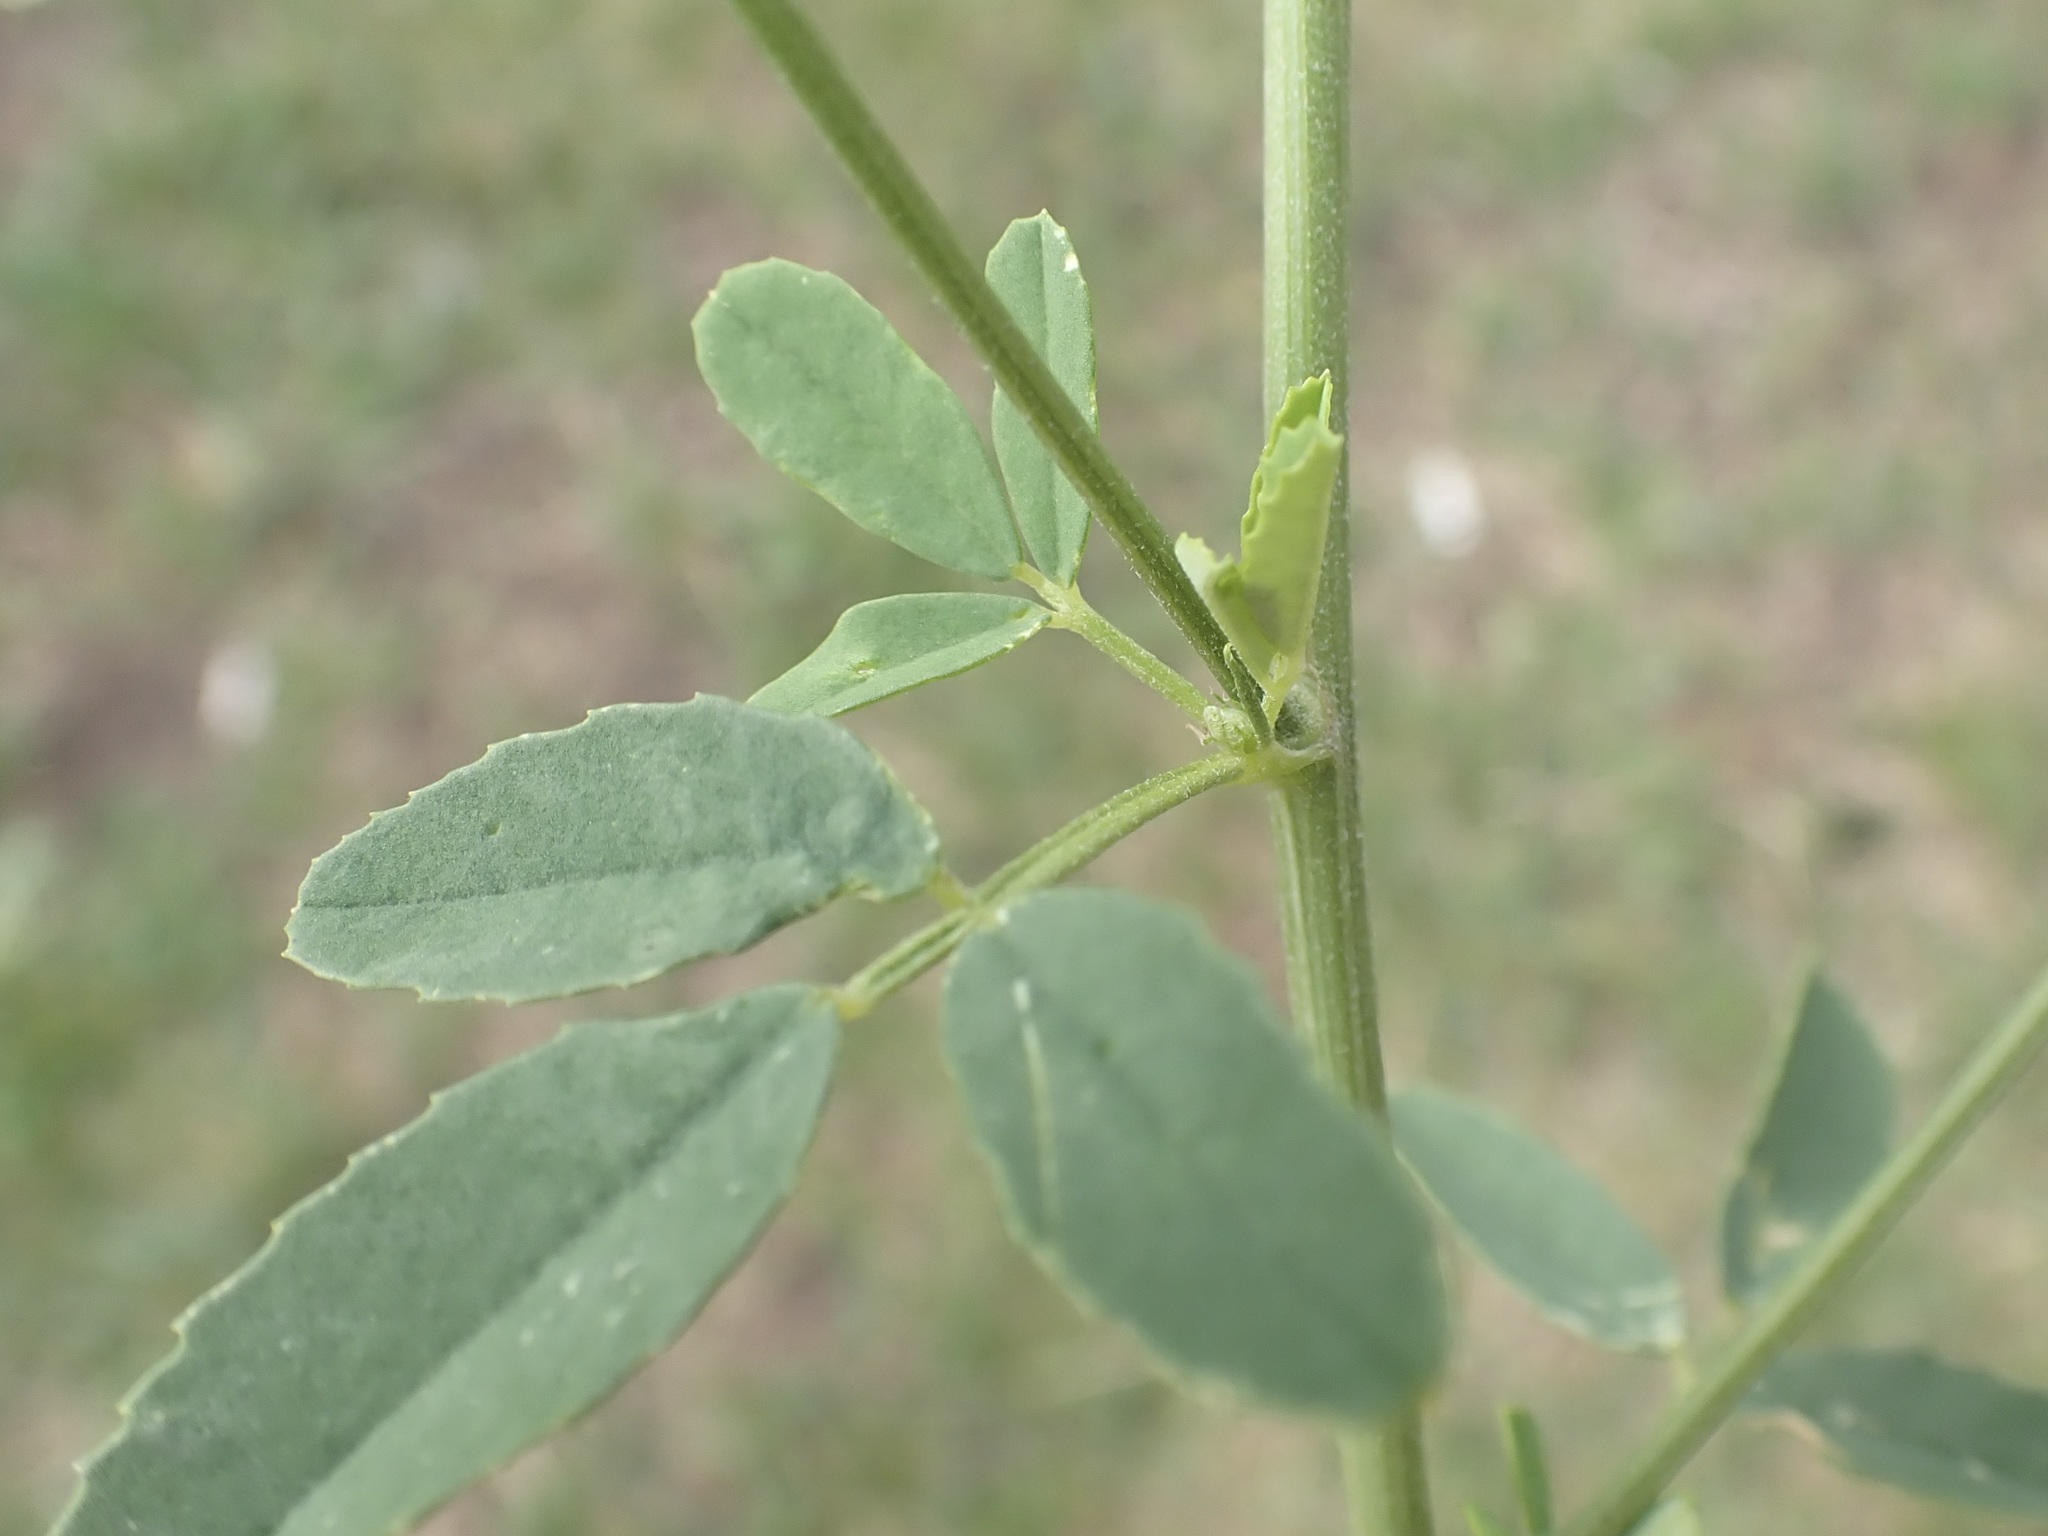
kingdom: Plantae
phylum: Tracheophyta
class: Magnoliopsida
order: Fabales
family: Fabaceae
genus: Melilotus
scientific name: Melilotus albus
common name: White melilot
